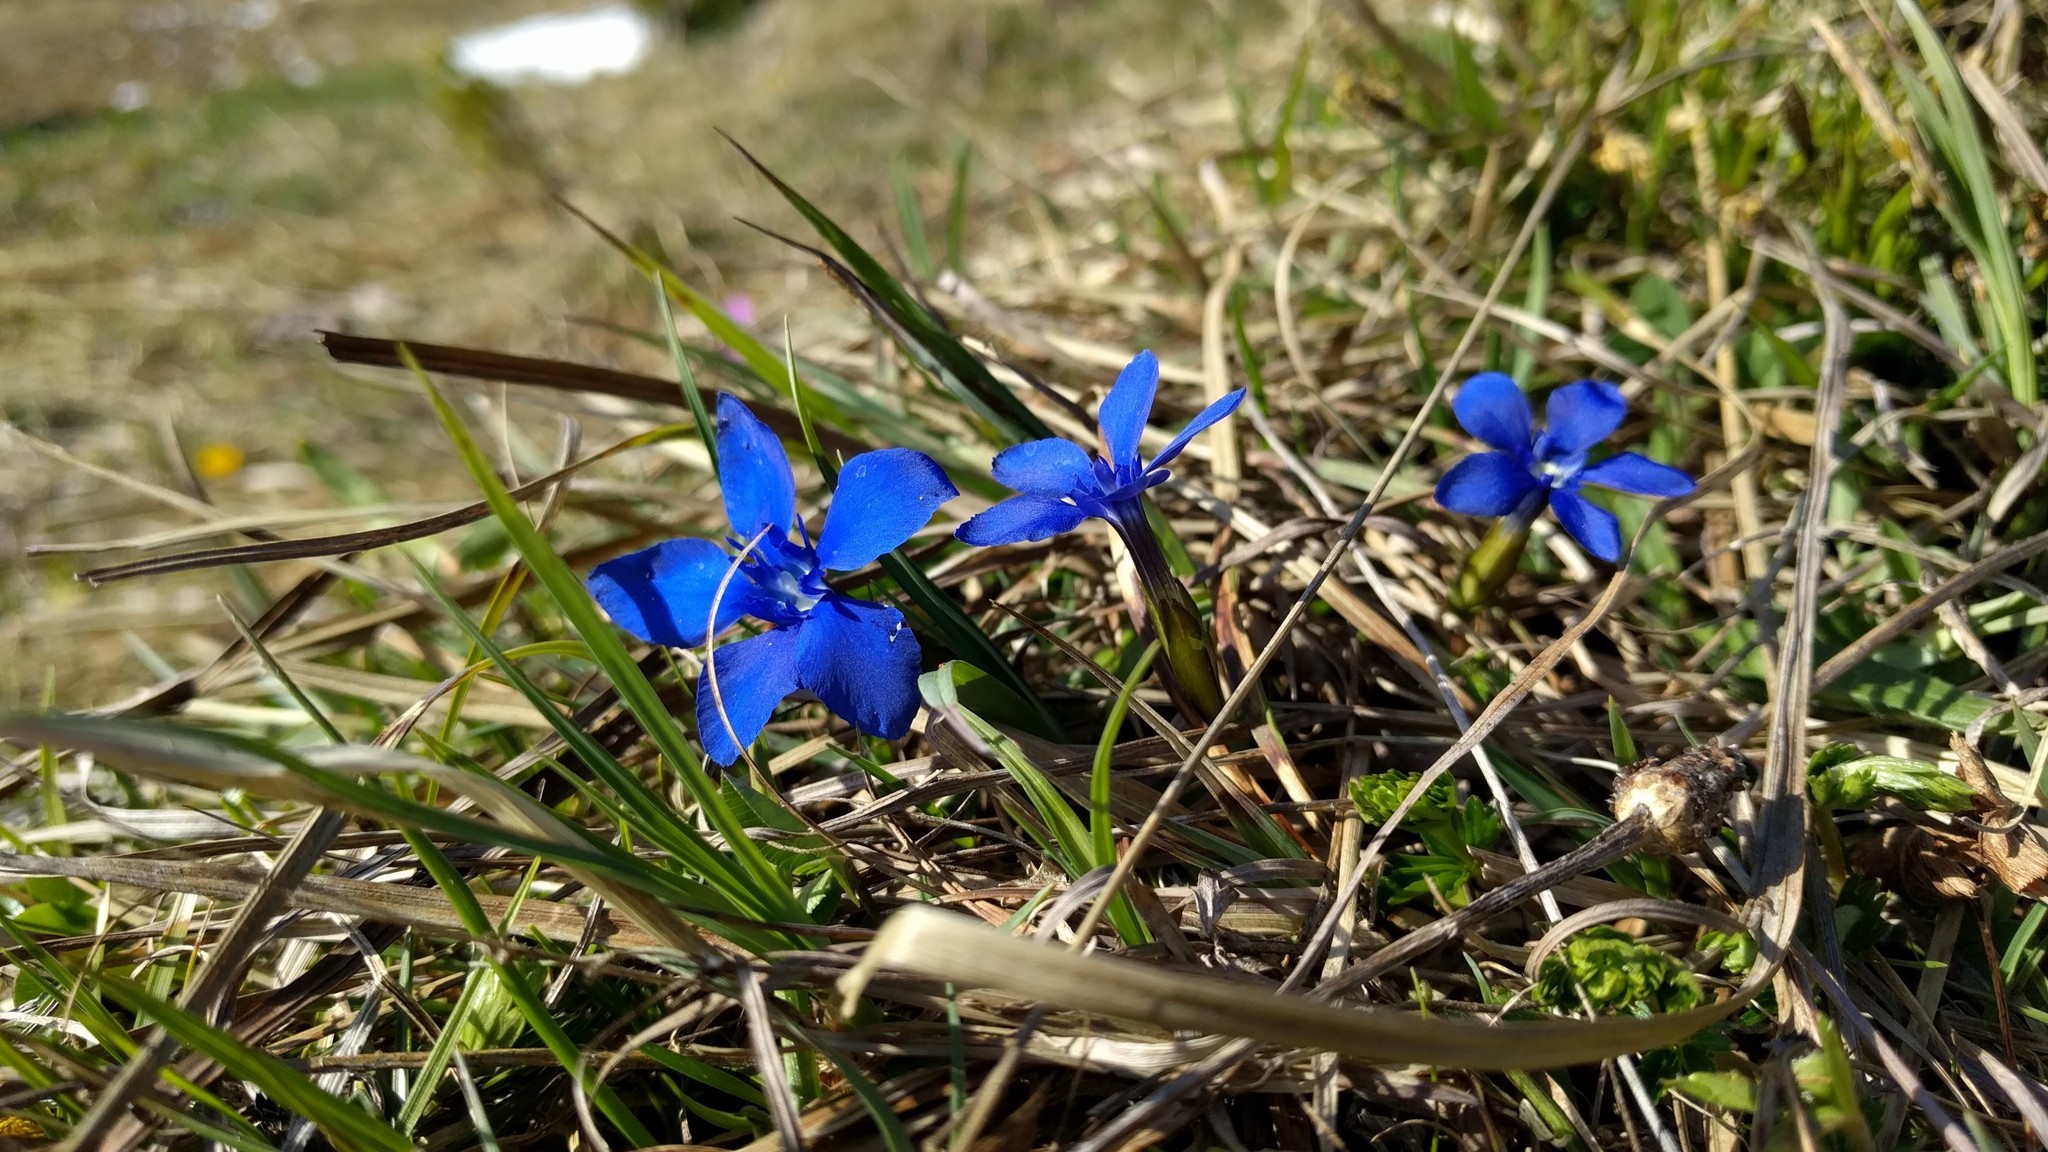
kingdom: Plantae
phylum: Tracheophyta
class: Magnoliopsida
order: Gentianales
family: Gentianaceae
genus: Gentiana
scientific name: Gentiana verna
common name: Spring gentian
